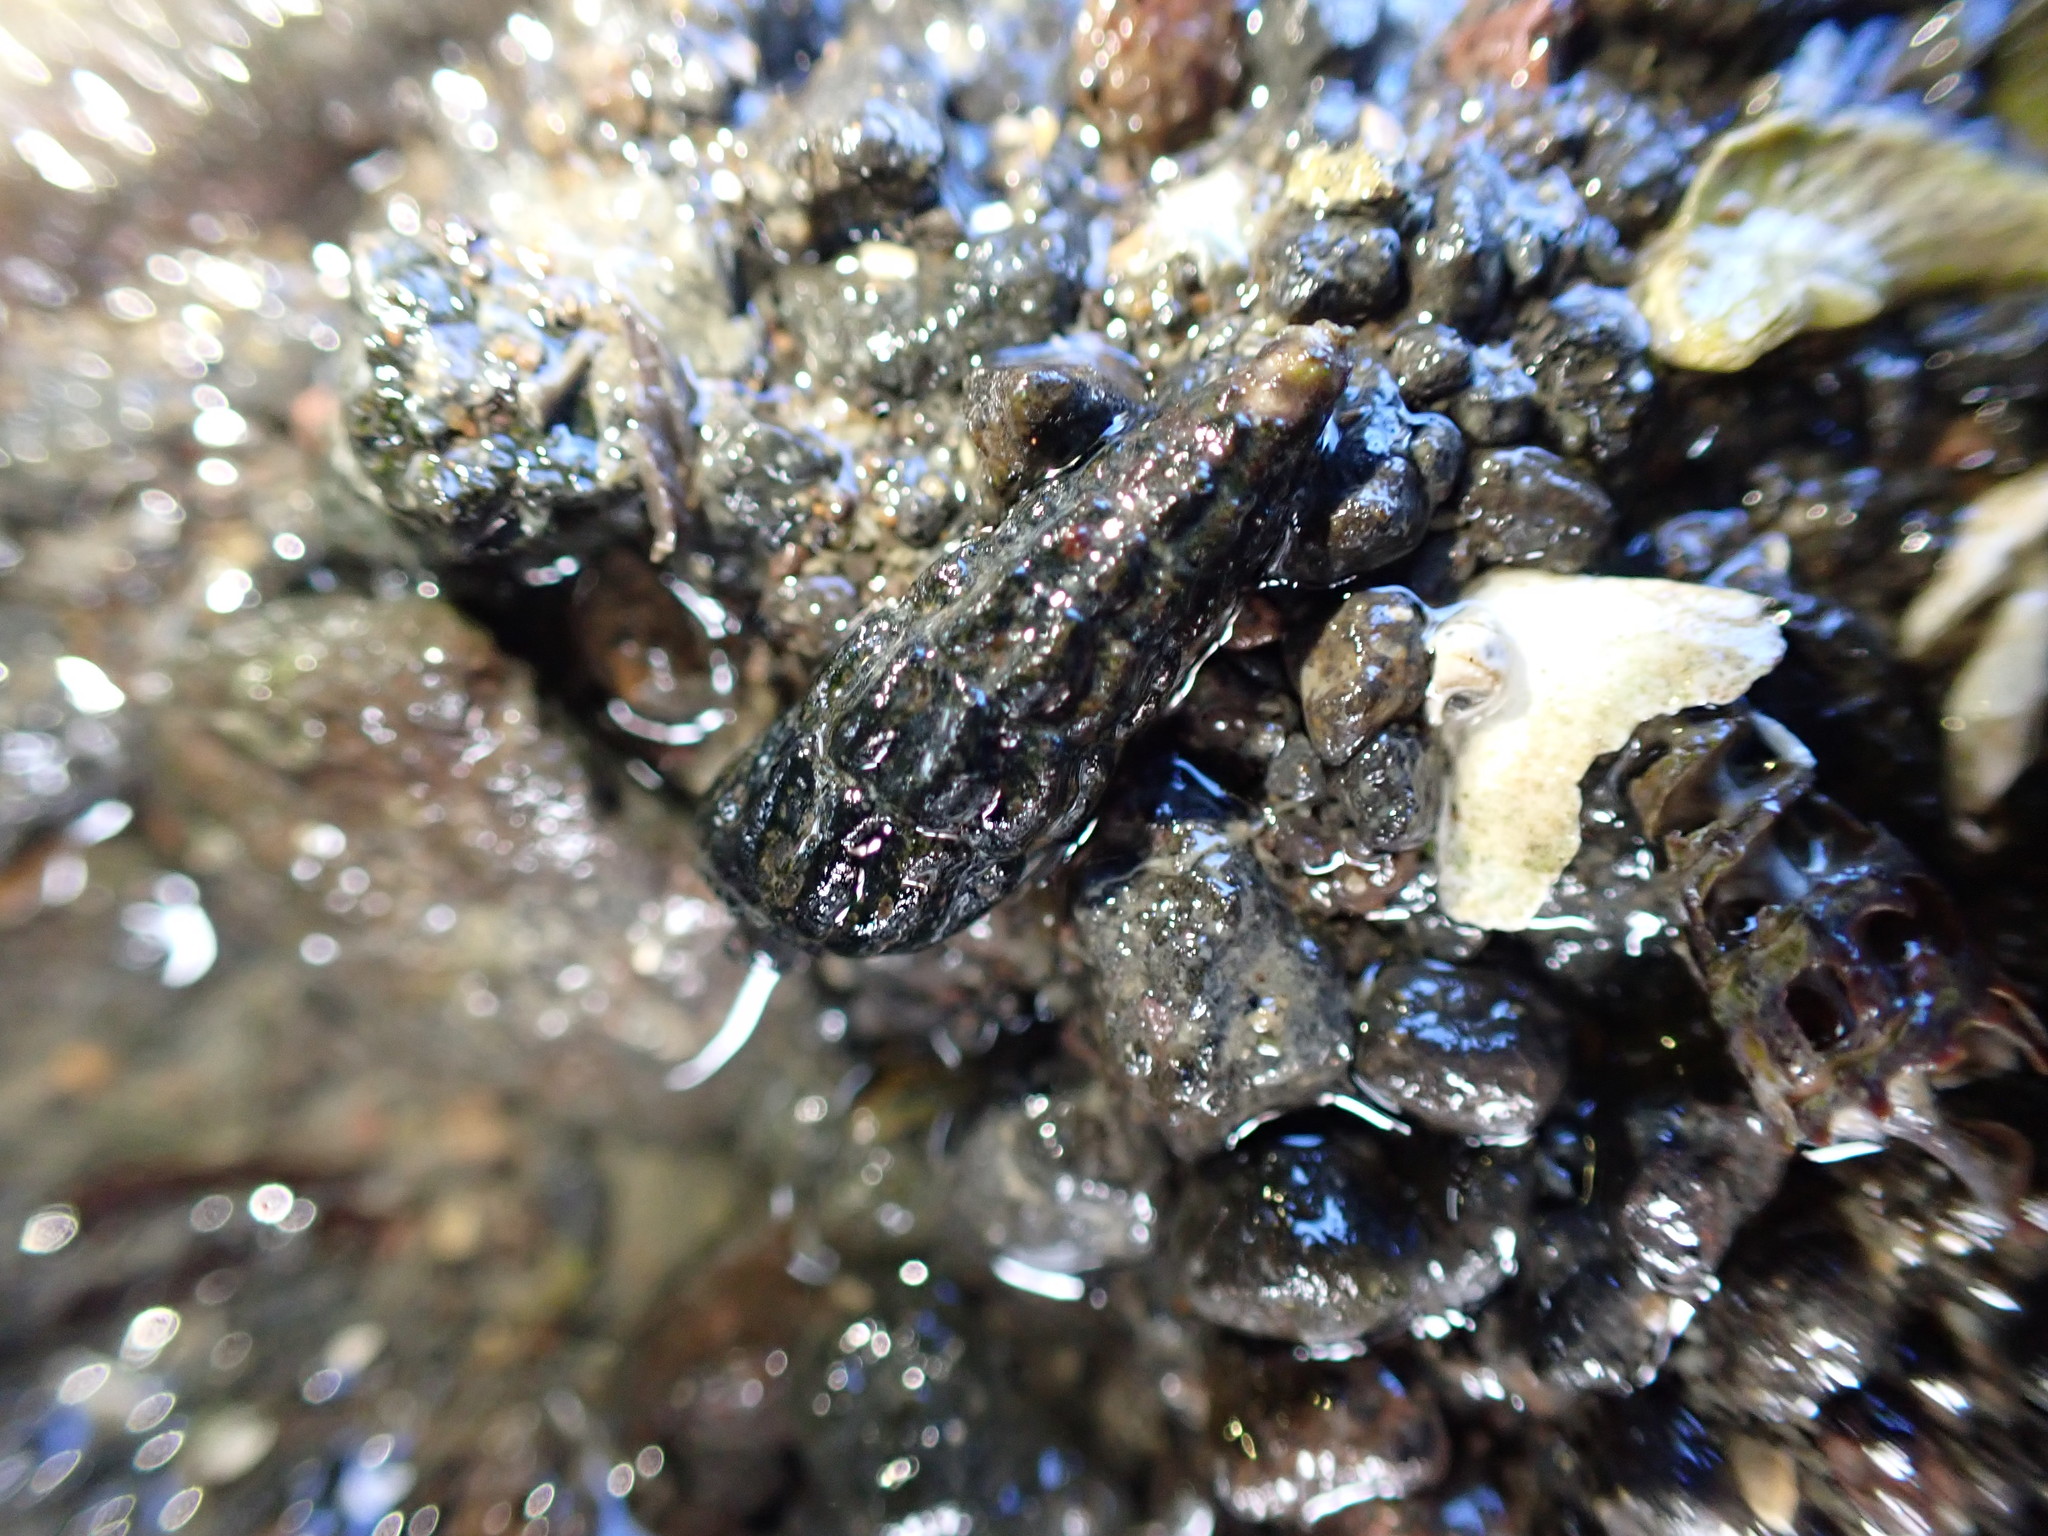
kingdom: Animalia
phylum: Mollusca
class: Gastropoda
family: Batillariidae
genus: Zeacumantus
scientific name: Zeacumantus subcarinatus
